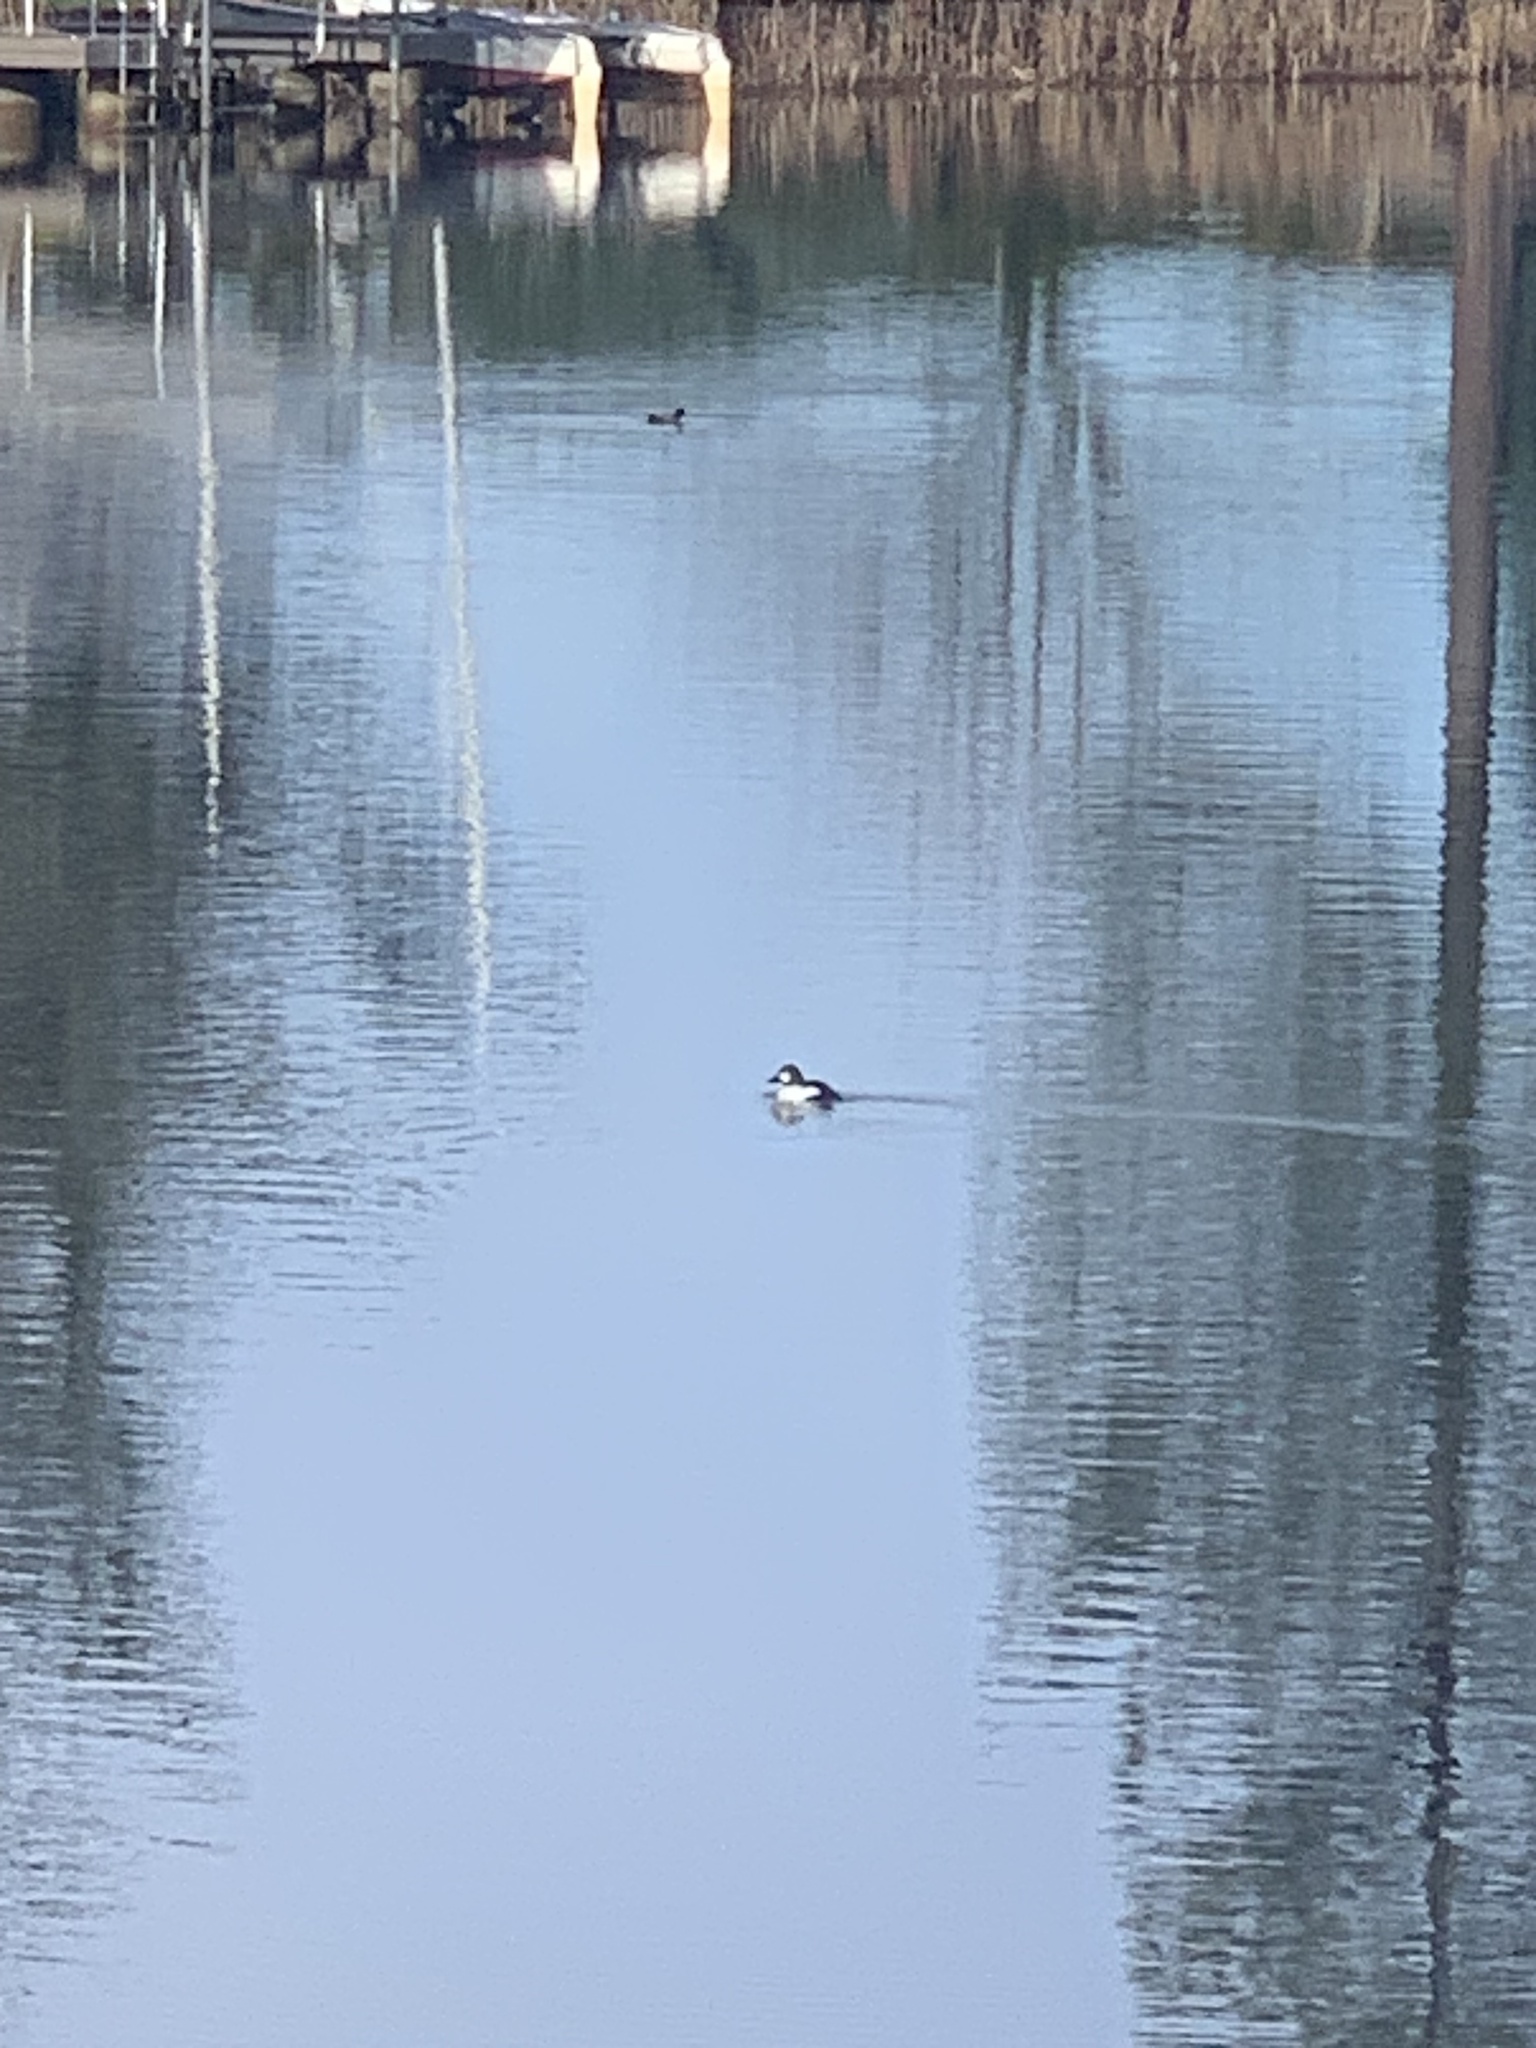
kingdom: Animalia
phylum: Chordata
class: Aves
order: Anseriformes
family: Anatidae
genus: Bucephala
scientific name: Bucephala clangula
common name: Common goldeneye
